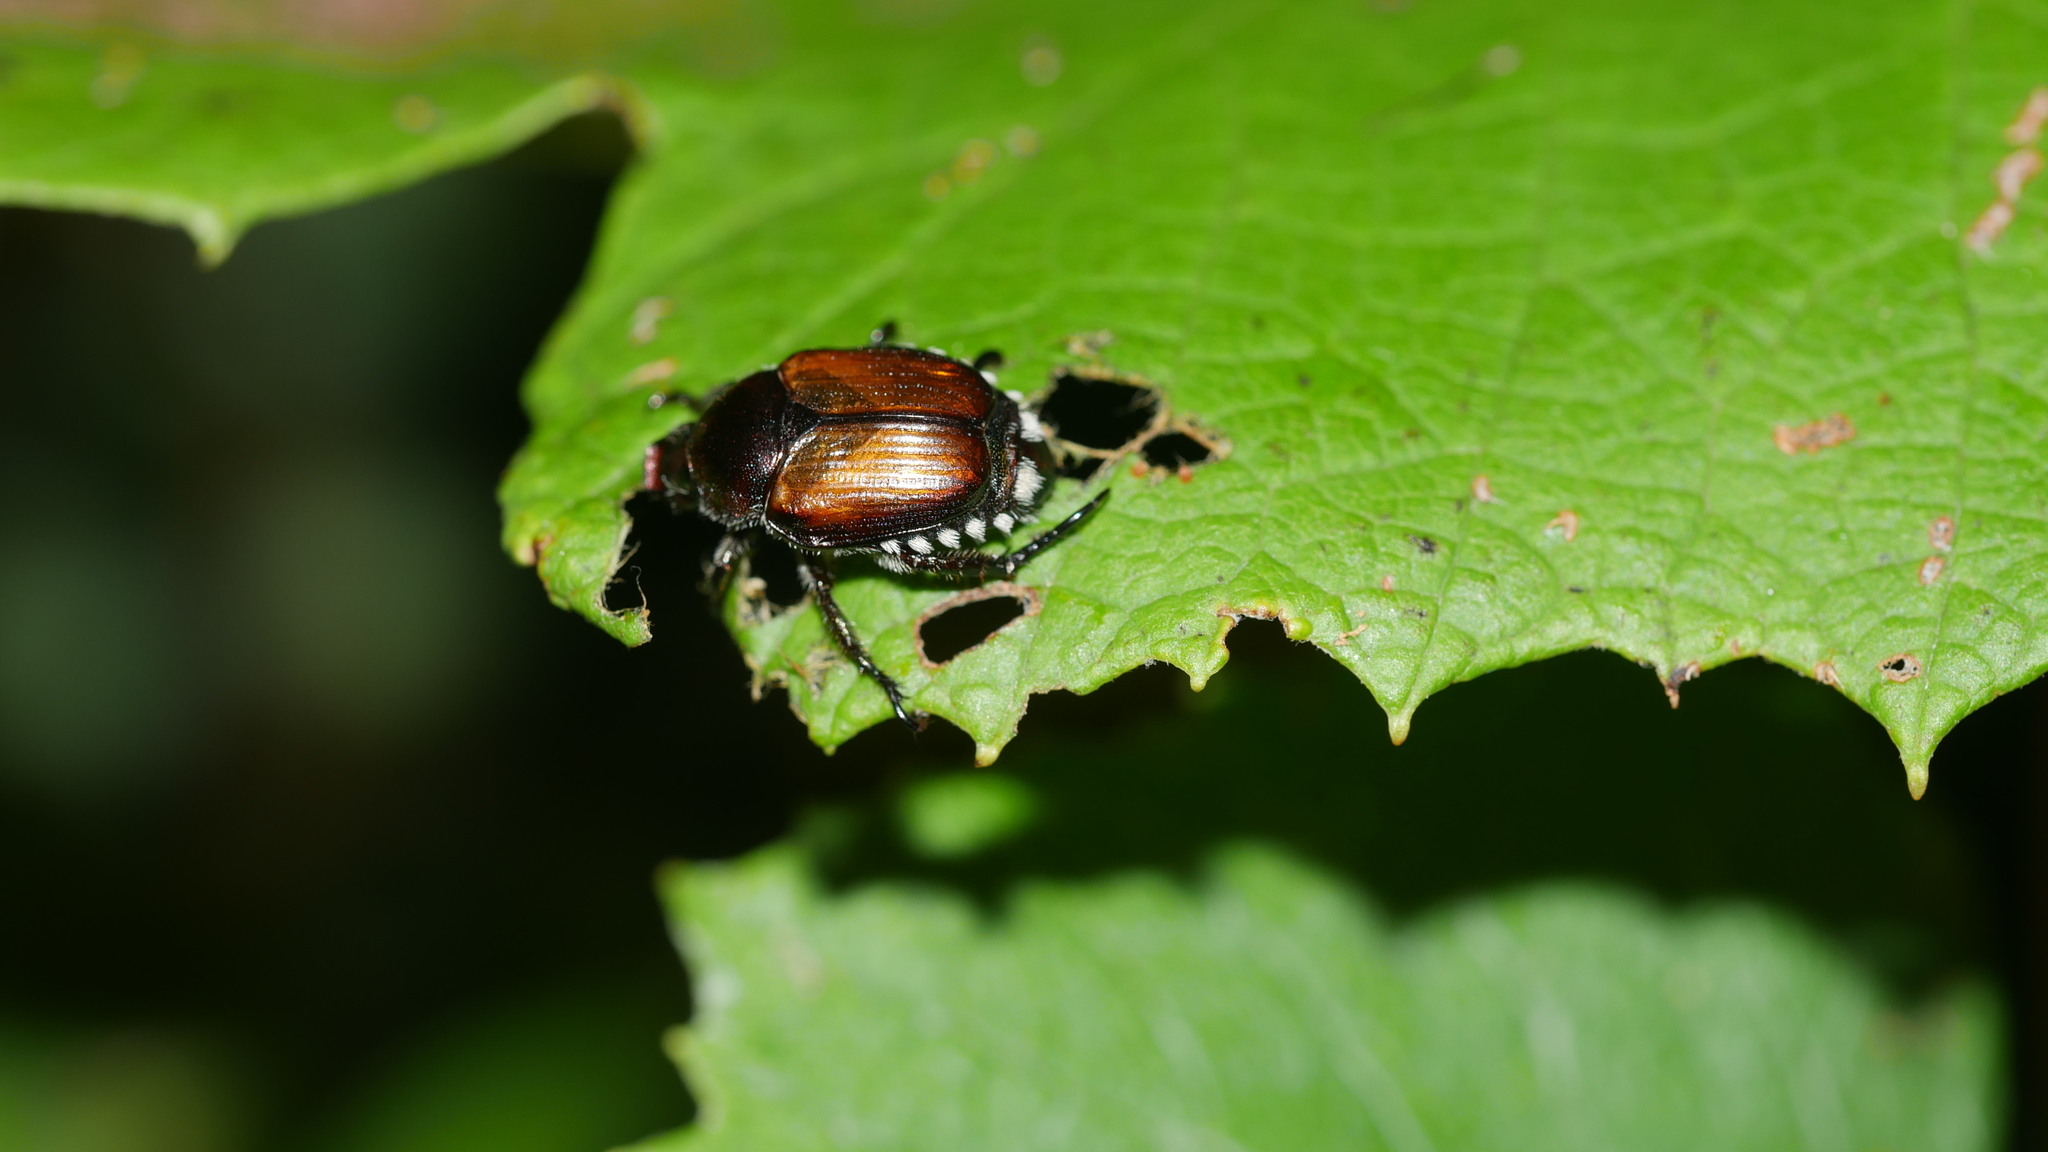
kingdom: Animalia
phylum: Arthropoda
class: Insecta
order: Coleoptera
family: Scarabaeidae
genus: Popillia
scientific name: Popillia japonica
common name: Japanese beetle
